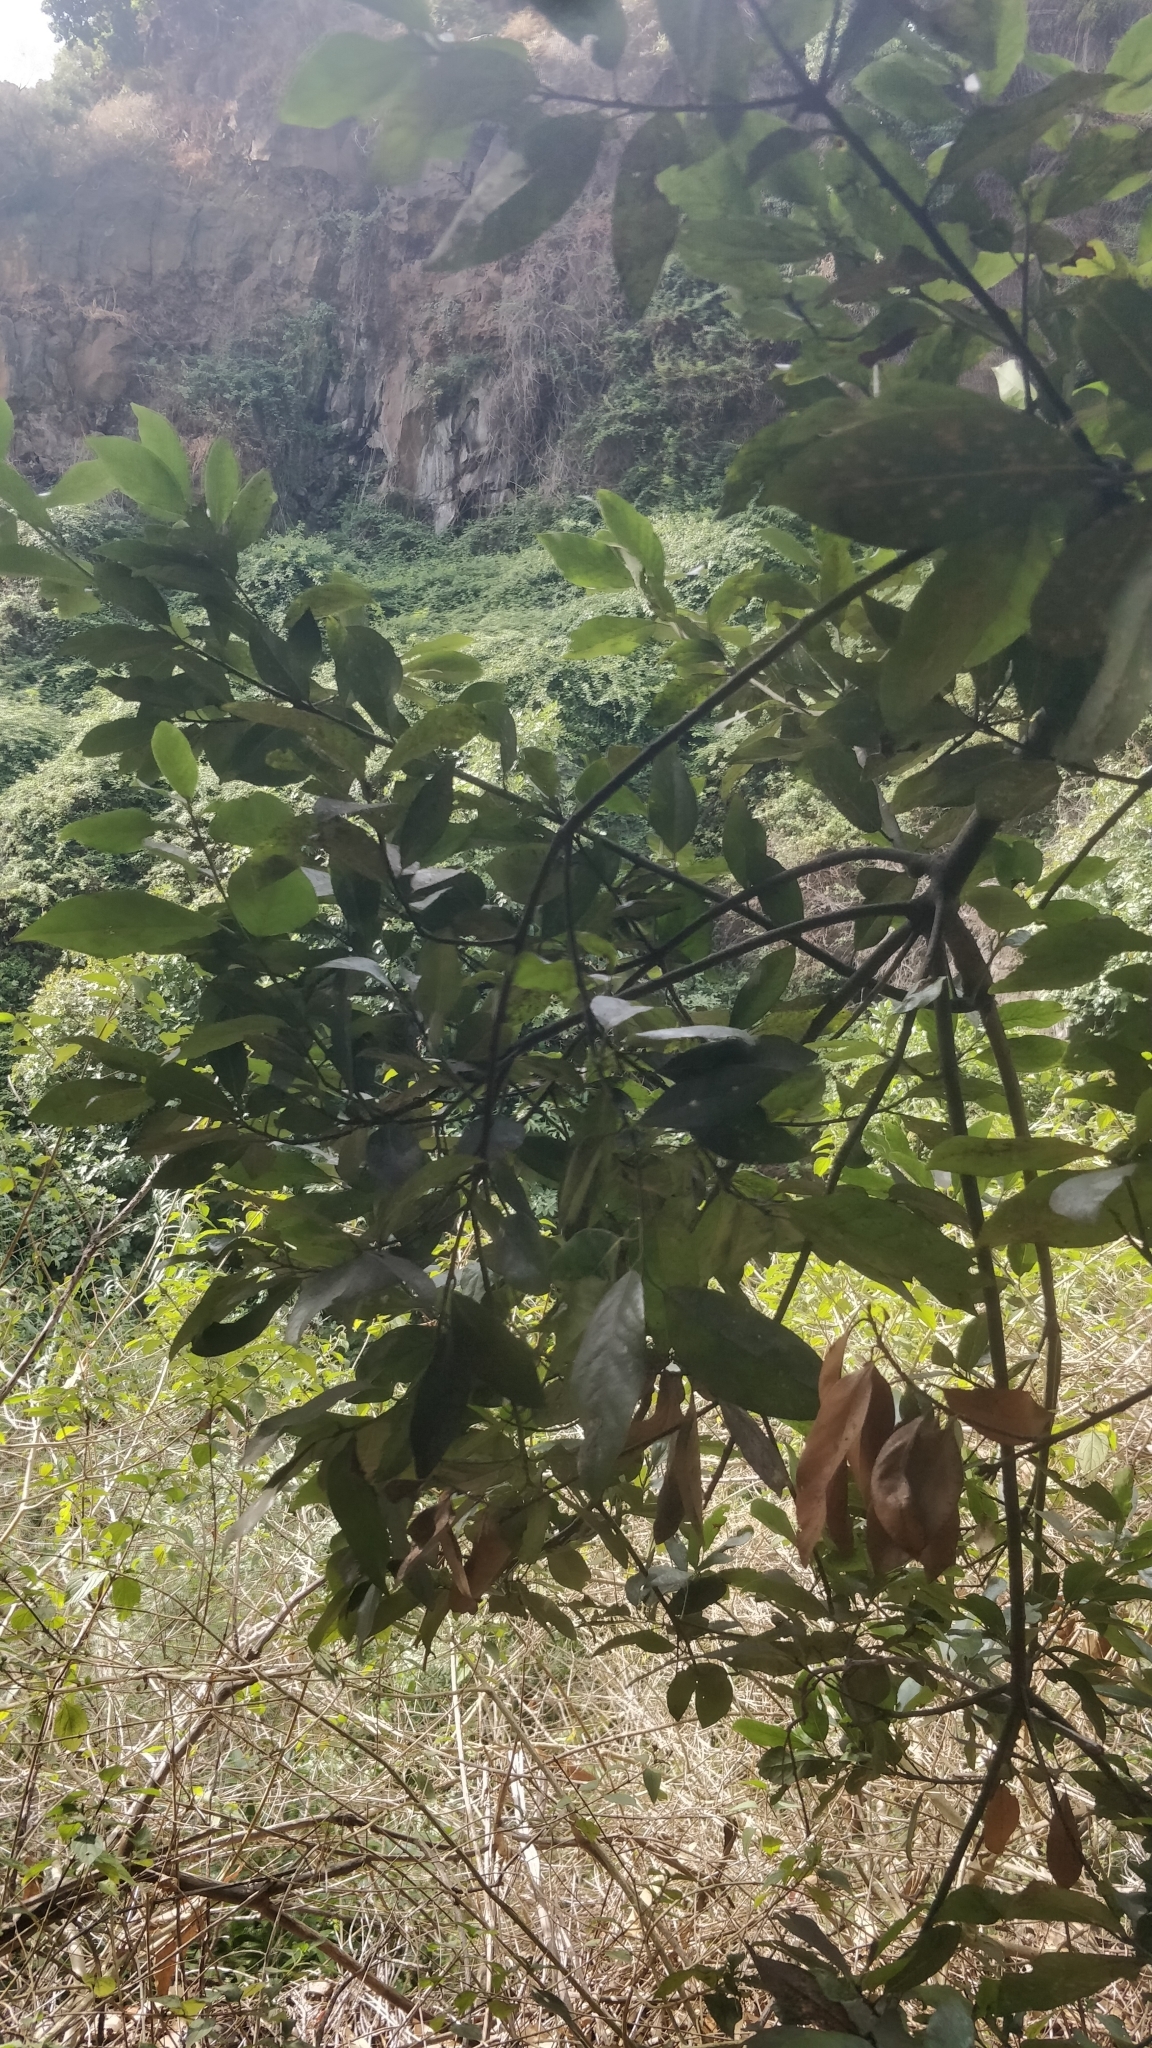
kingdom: Plantae
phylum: Tracheophyta
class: Magnoliopsida
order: Laurales
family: Lauraceae
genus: Laurus
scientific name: Laurus novocanariensis
